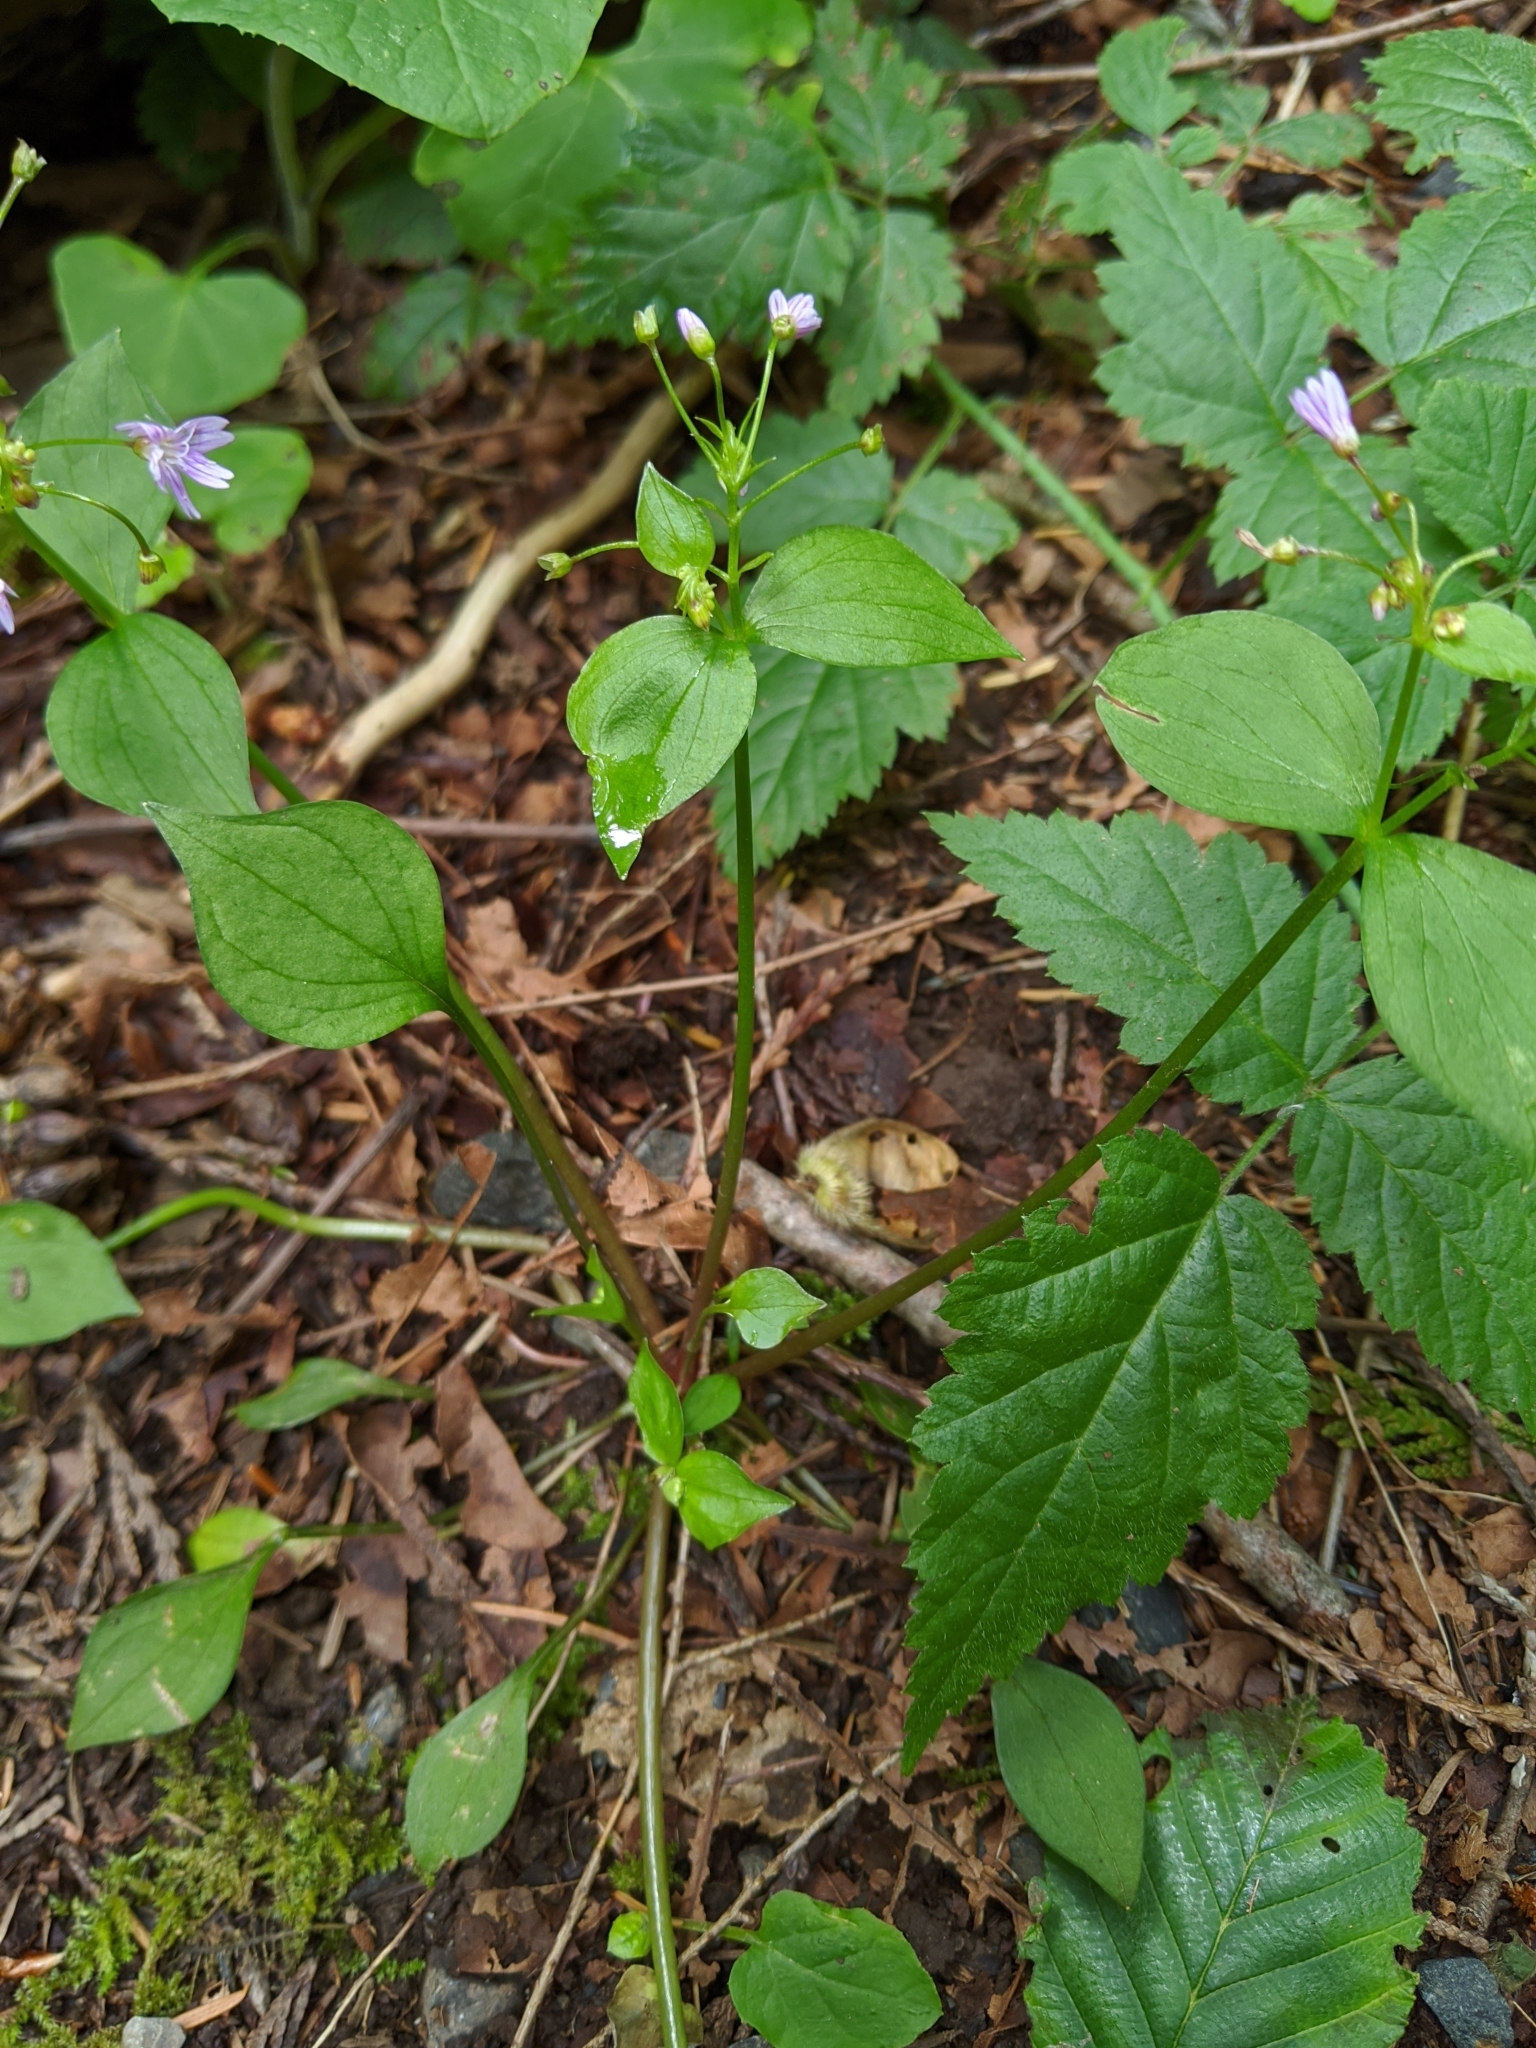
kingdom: Plantae
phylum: Tracheophyta
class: Magnoliopsida
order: Caryophyllales
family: Montiaceae
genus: Claytonia
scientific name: Claytonia sibirica
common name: Pink purslane
